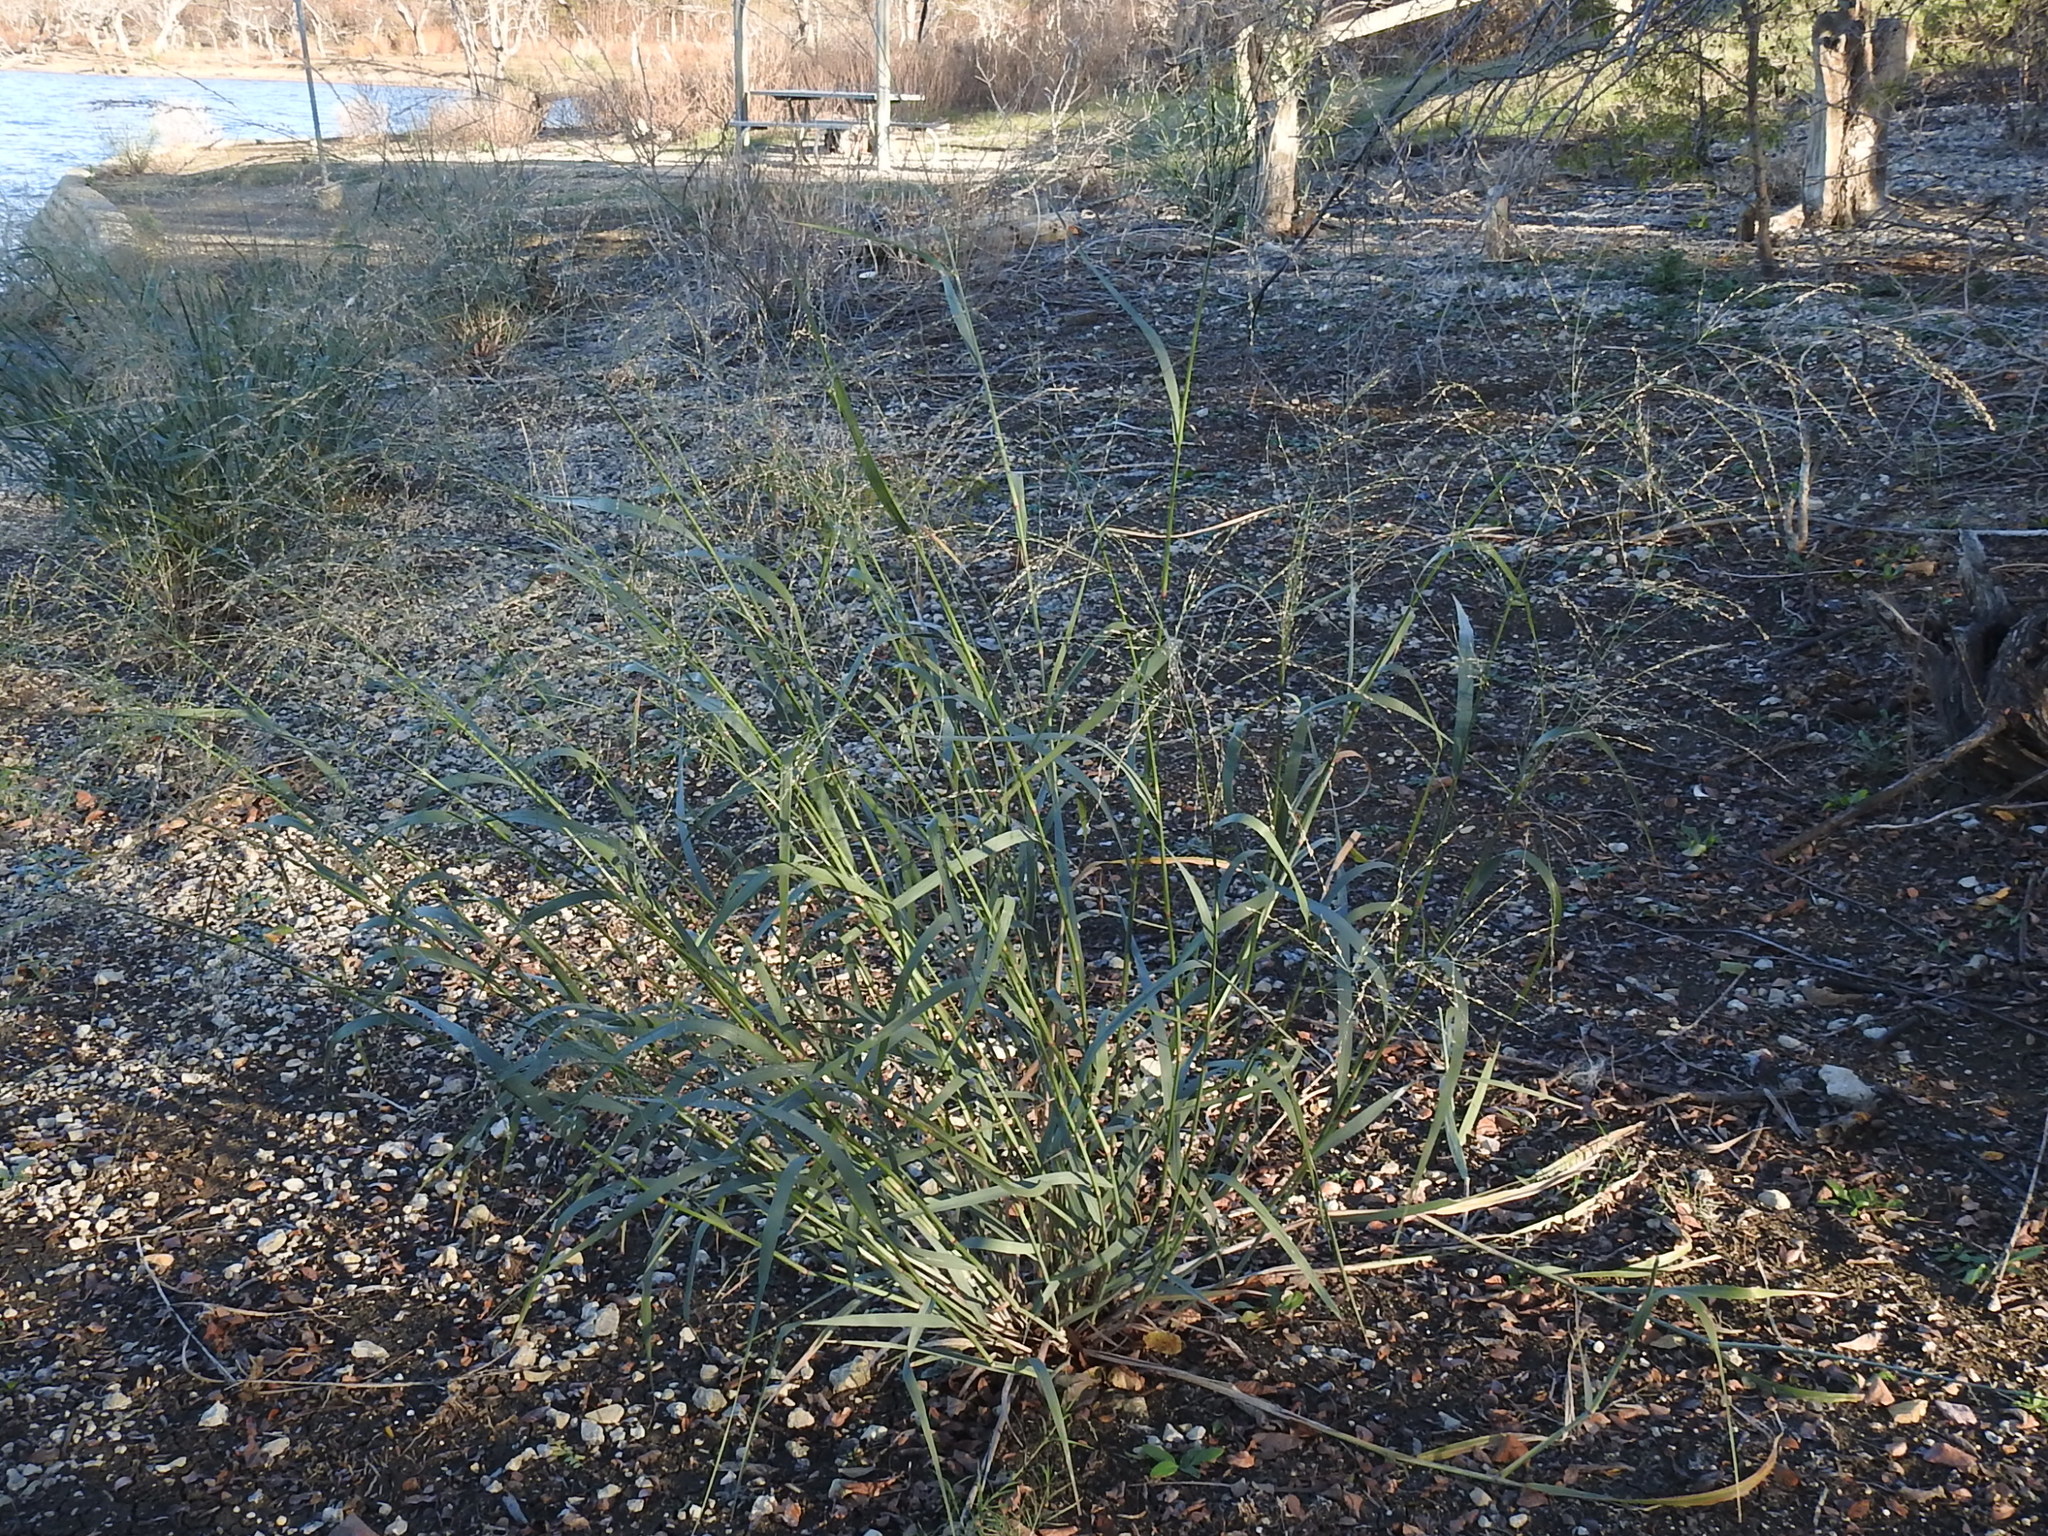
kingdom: Plantae
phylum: Tracheophyta
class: Liliopsida
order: Poales
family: Poaceae
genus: Panicum
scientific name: Panicum virgatum
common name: Switchgrass
